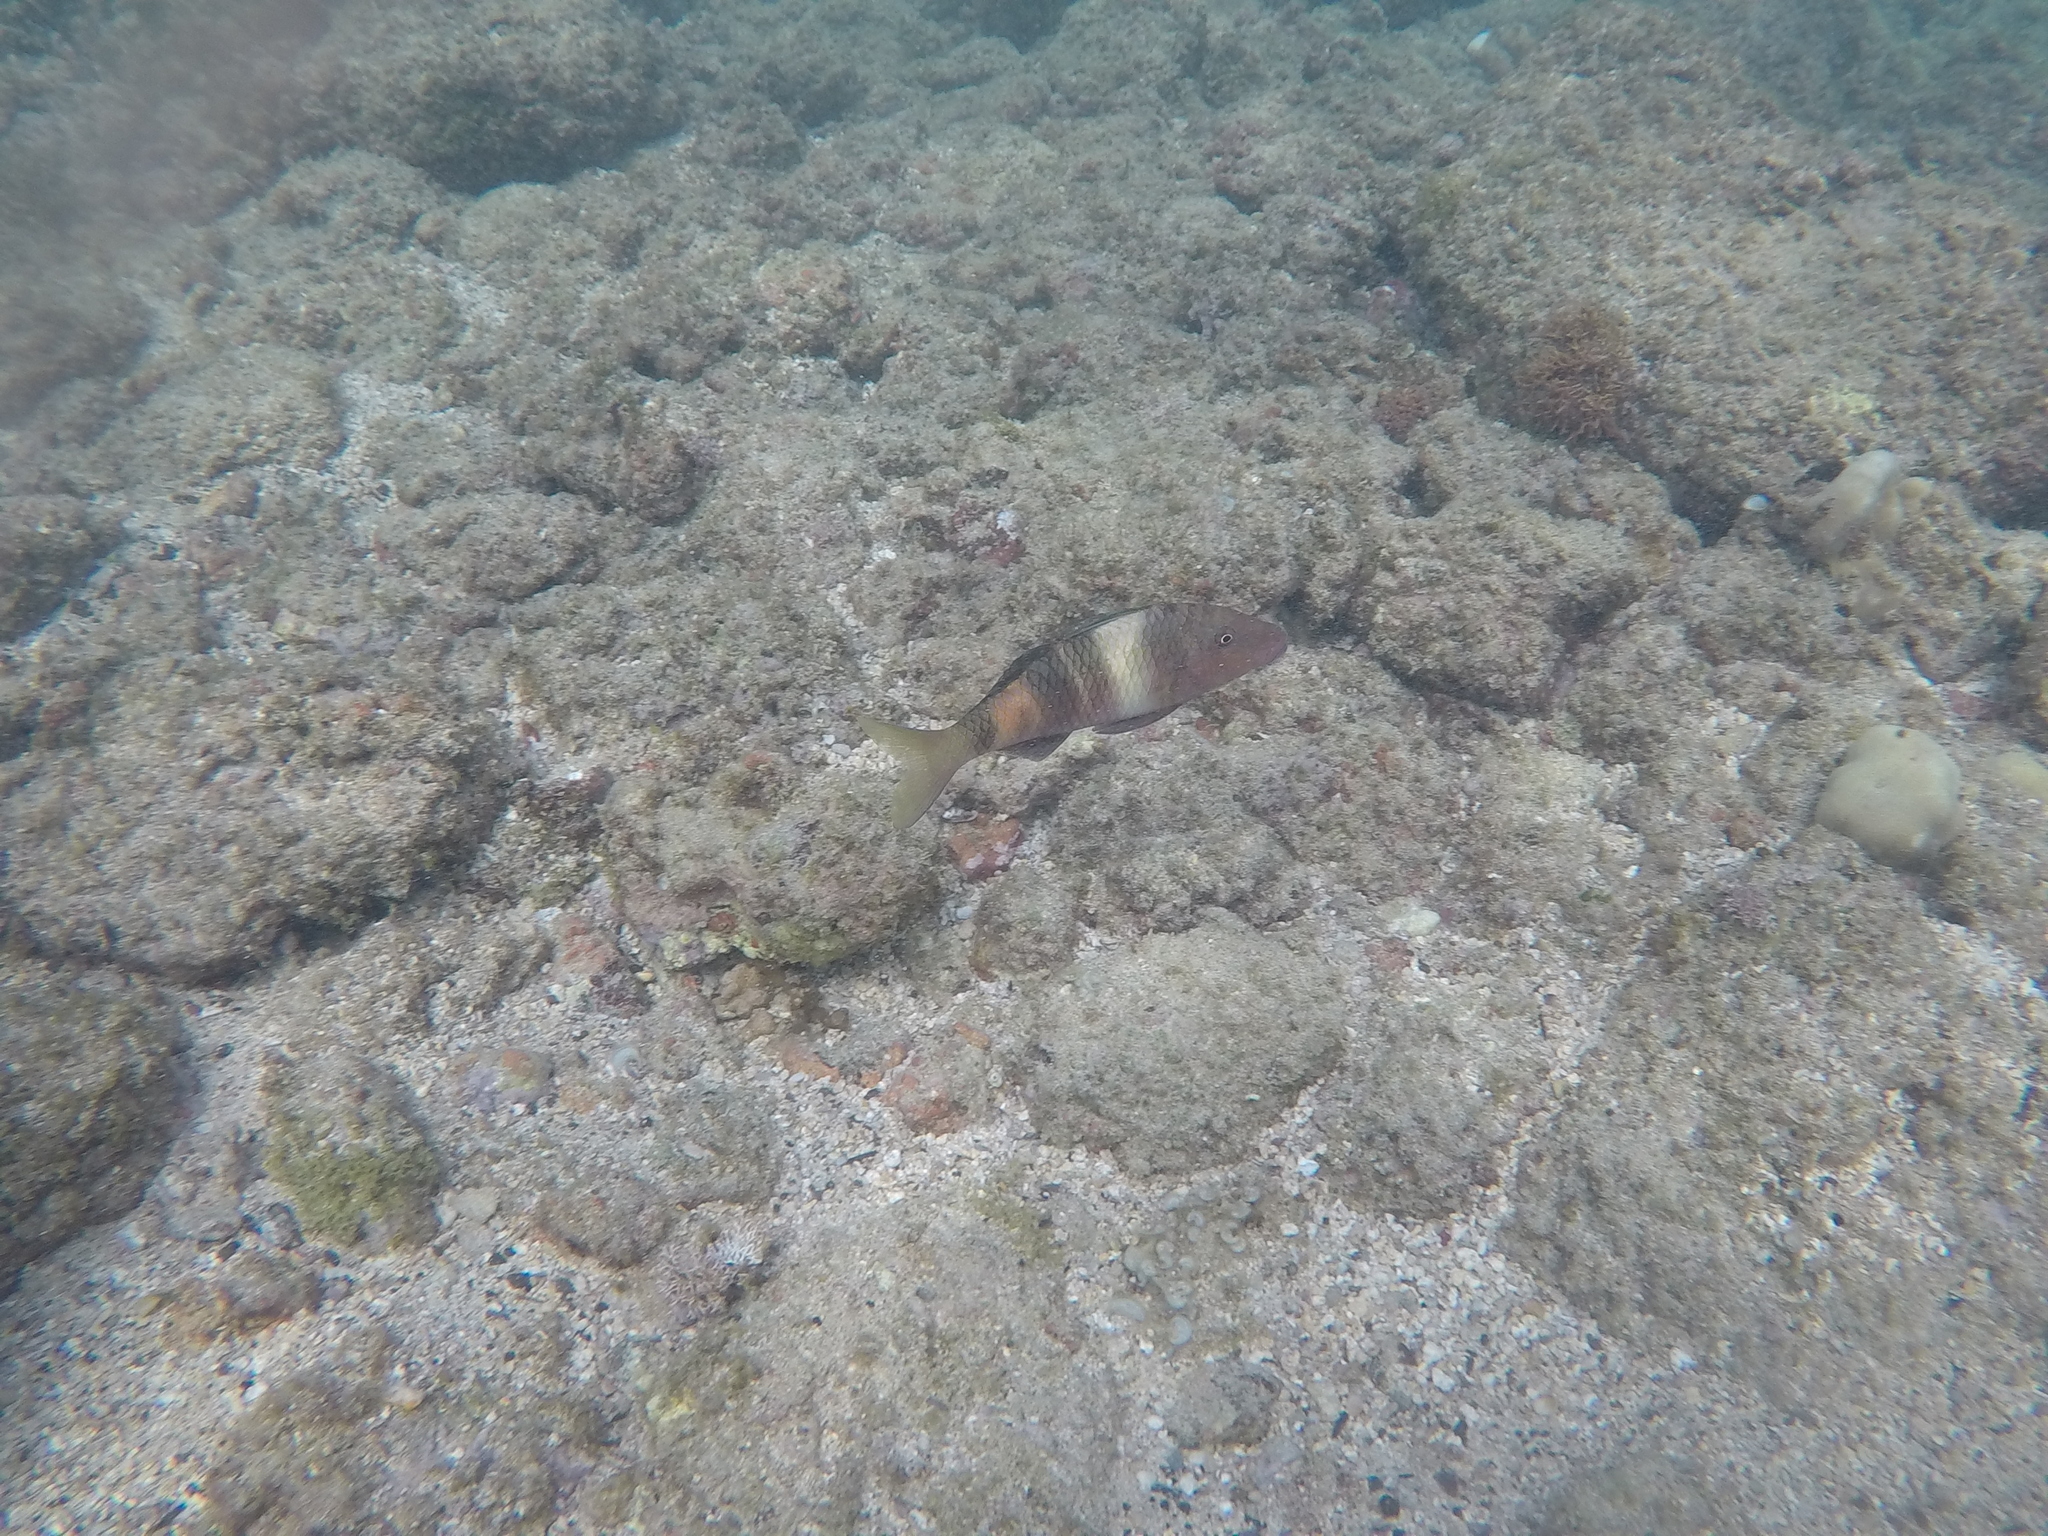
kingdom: Animalia
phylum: Chordata
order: Perciformes
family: Mullidae
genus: Parupeneus
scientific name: Parupeneus multifasciatus
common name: Manybar goatfish
